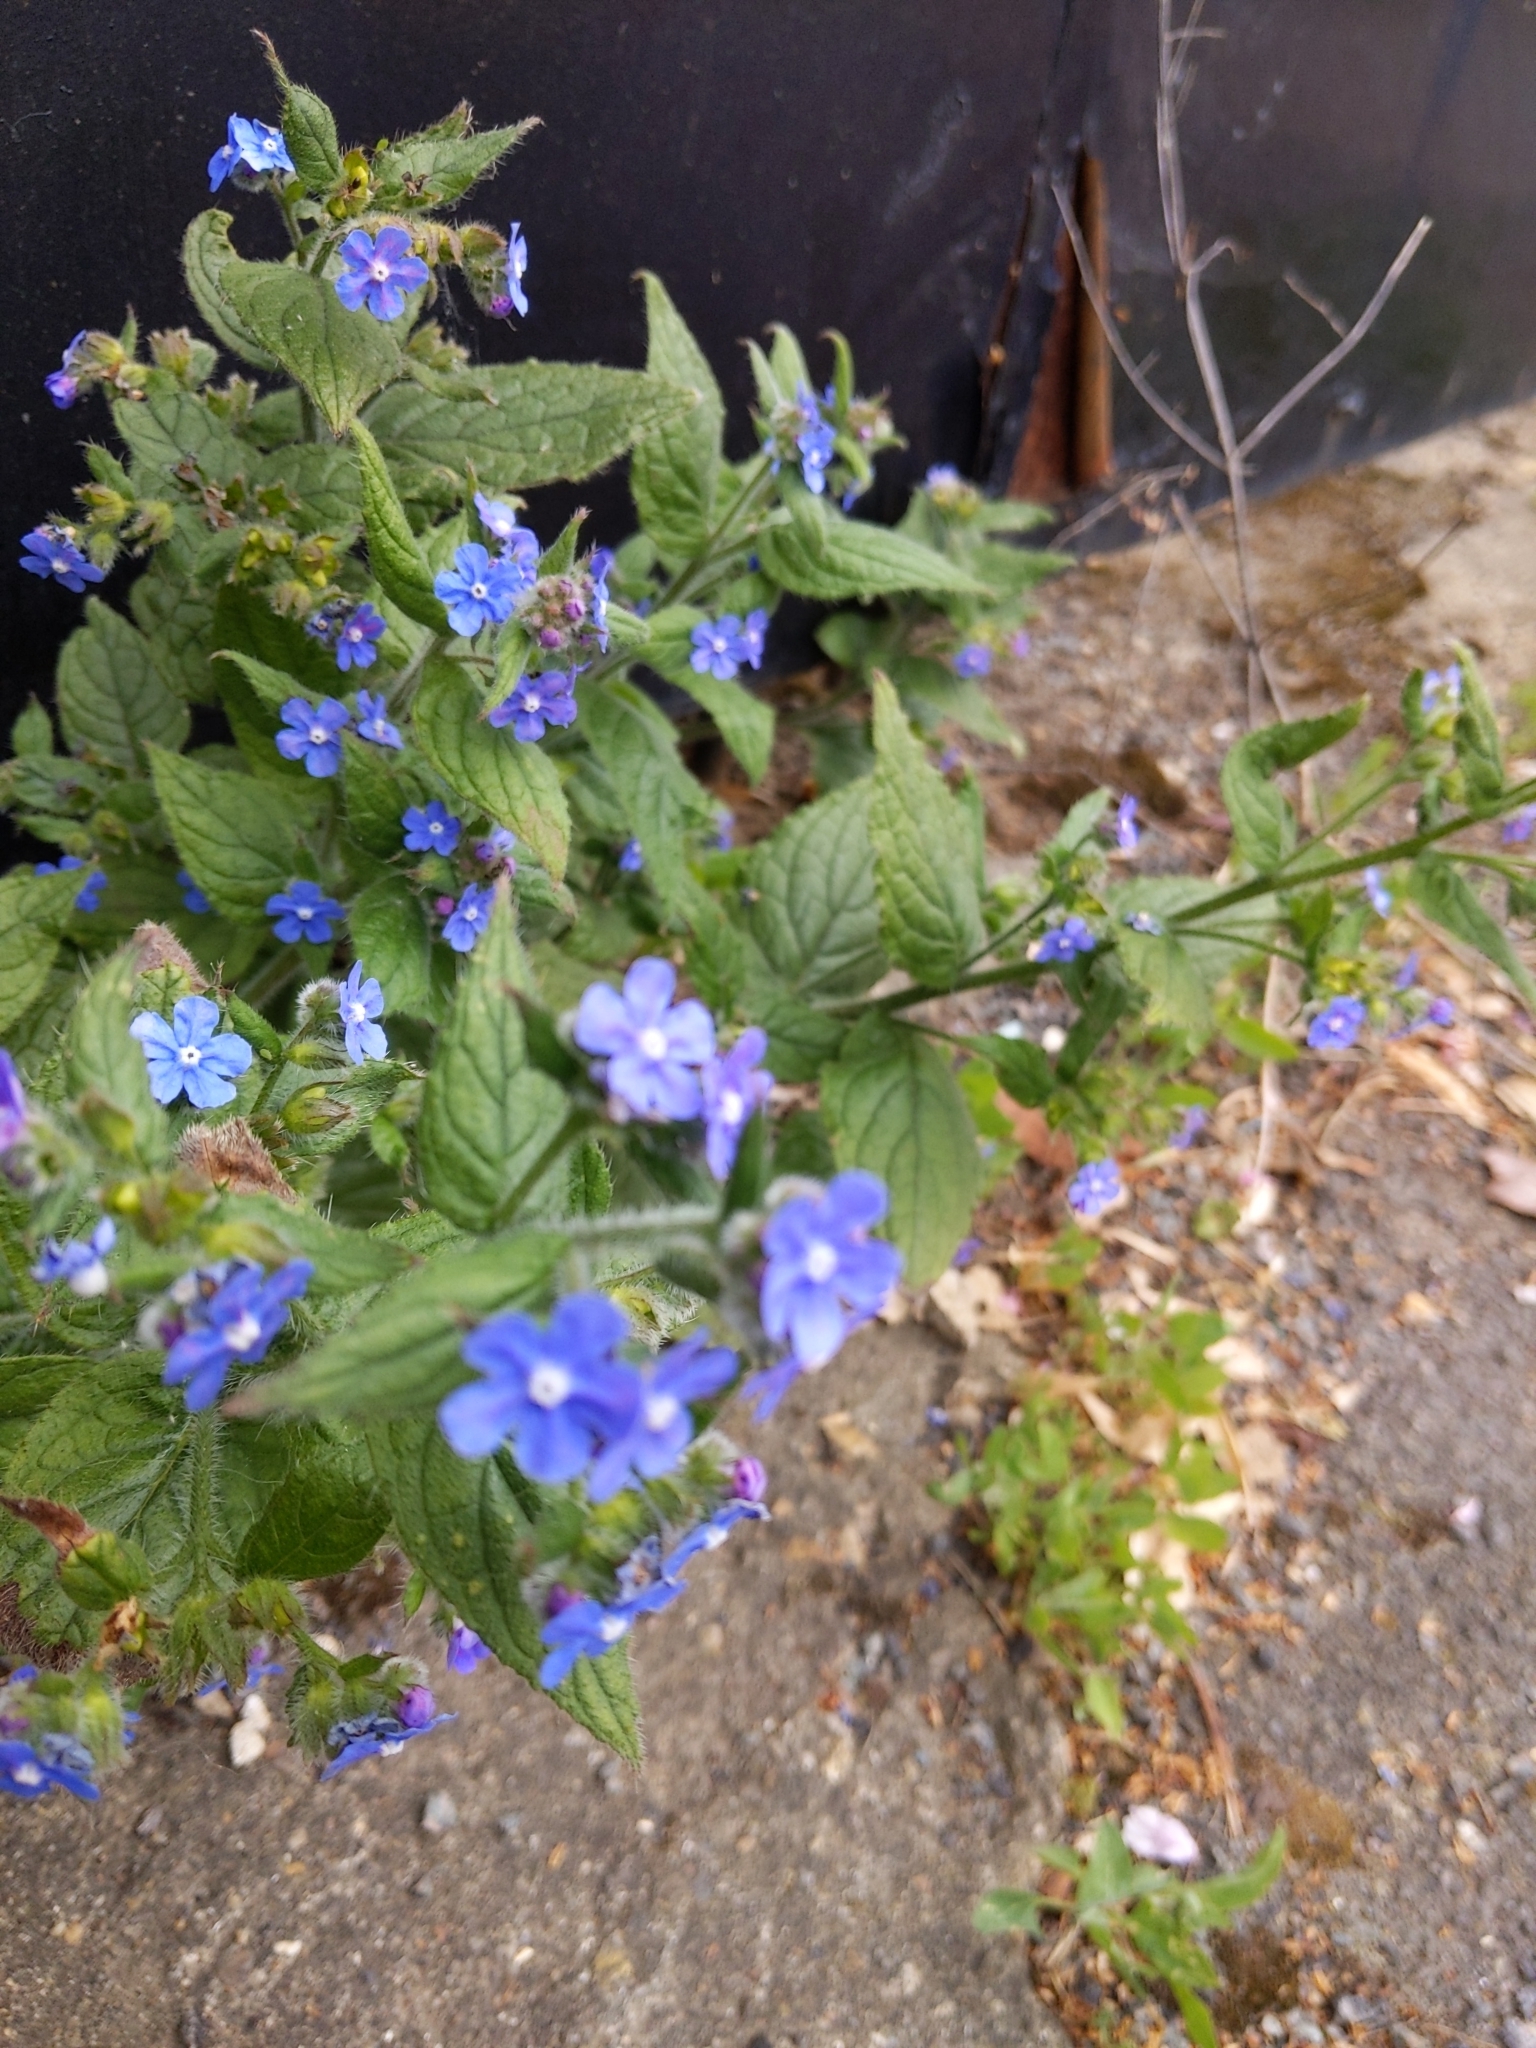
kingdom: Plantae
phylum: Tracheophyta
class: Magnoliopsida
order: Boraginales
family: Boraginaceae
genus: Pentaglottis
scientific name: Pentaglottis sempervirens
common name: Green alkanet
